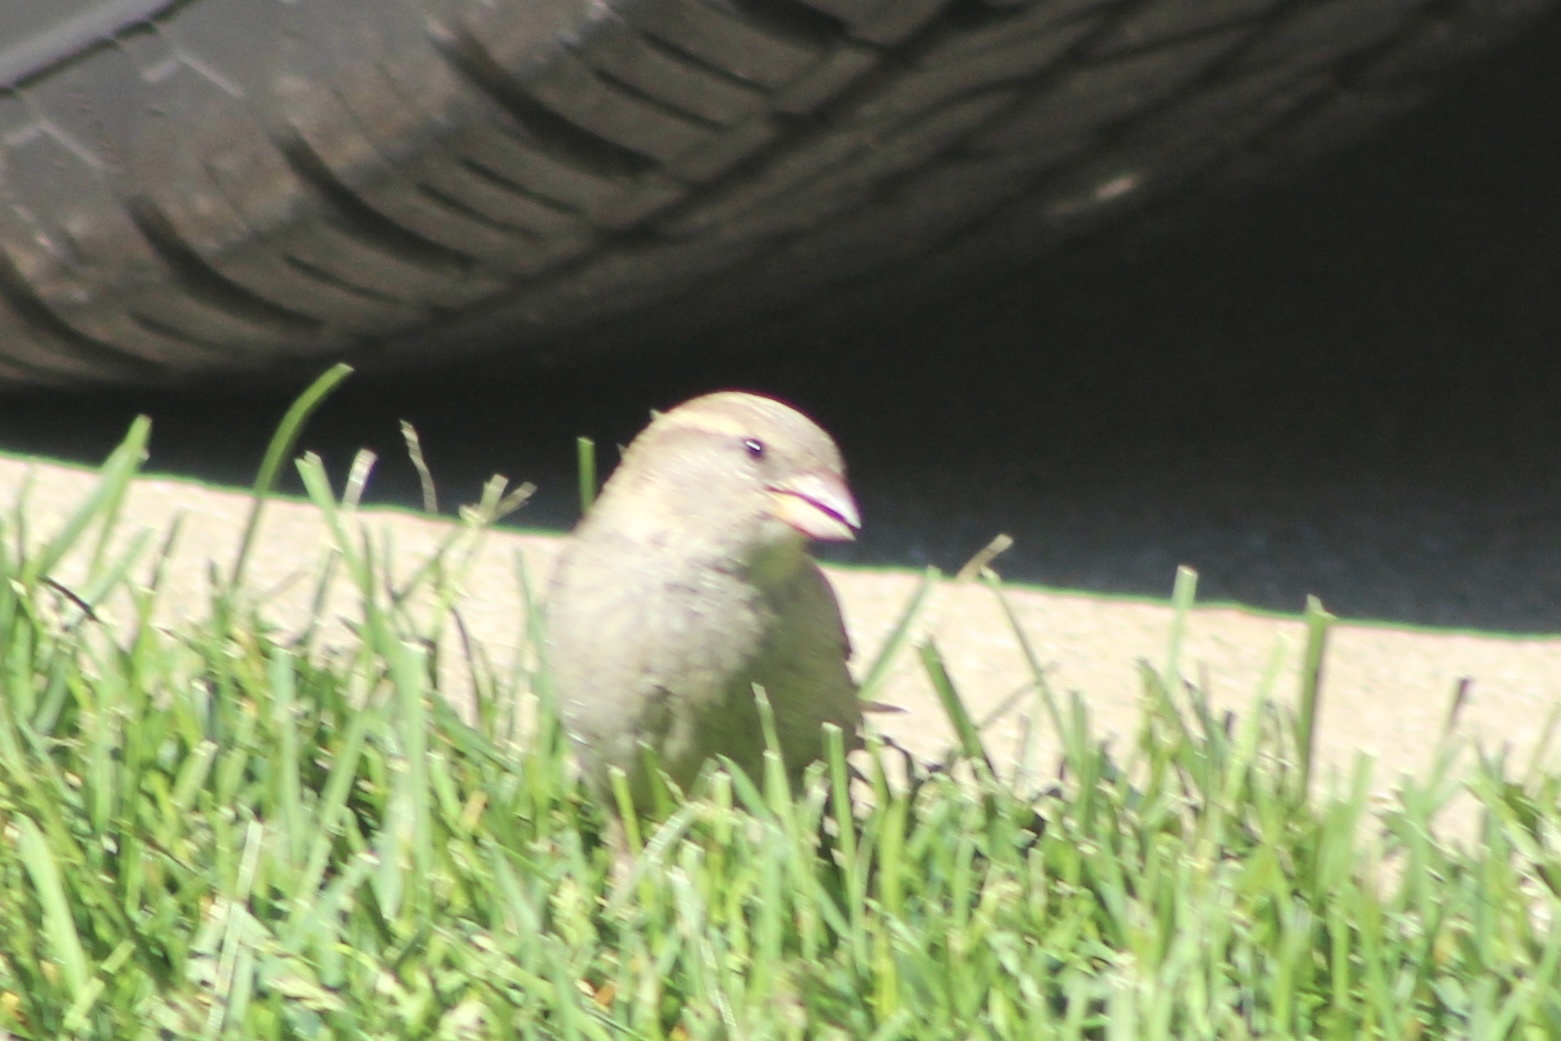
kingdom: Animalia
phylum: Chordata
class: Aves
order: Passeriformes
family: Passeridae
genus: Passer
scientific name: Passer domesticus
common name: House sparrow
